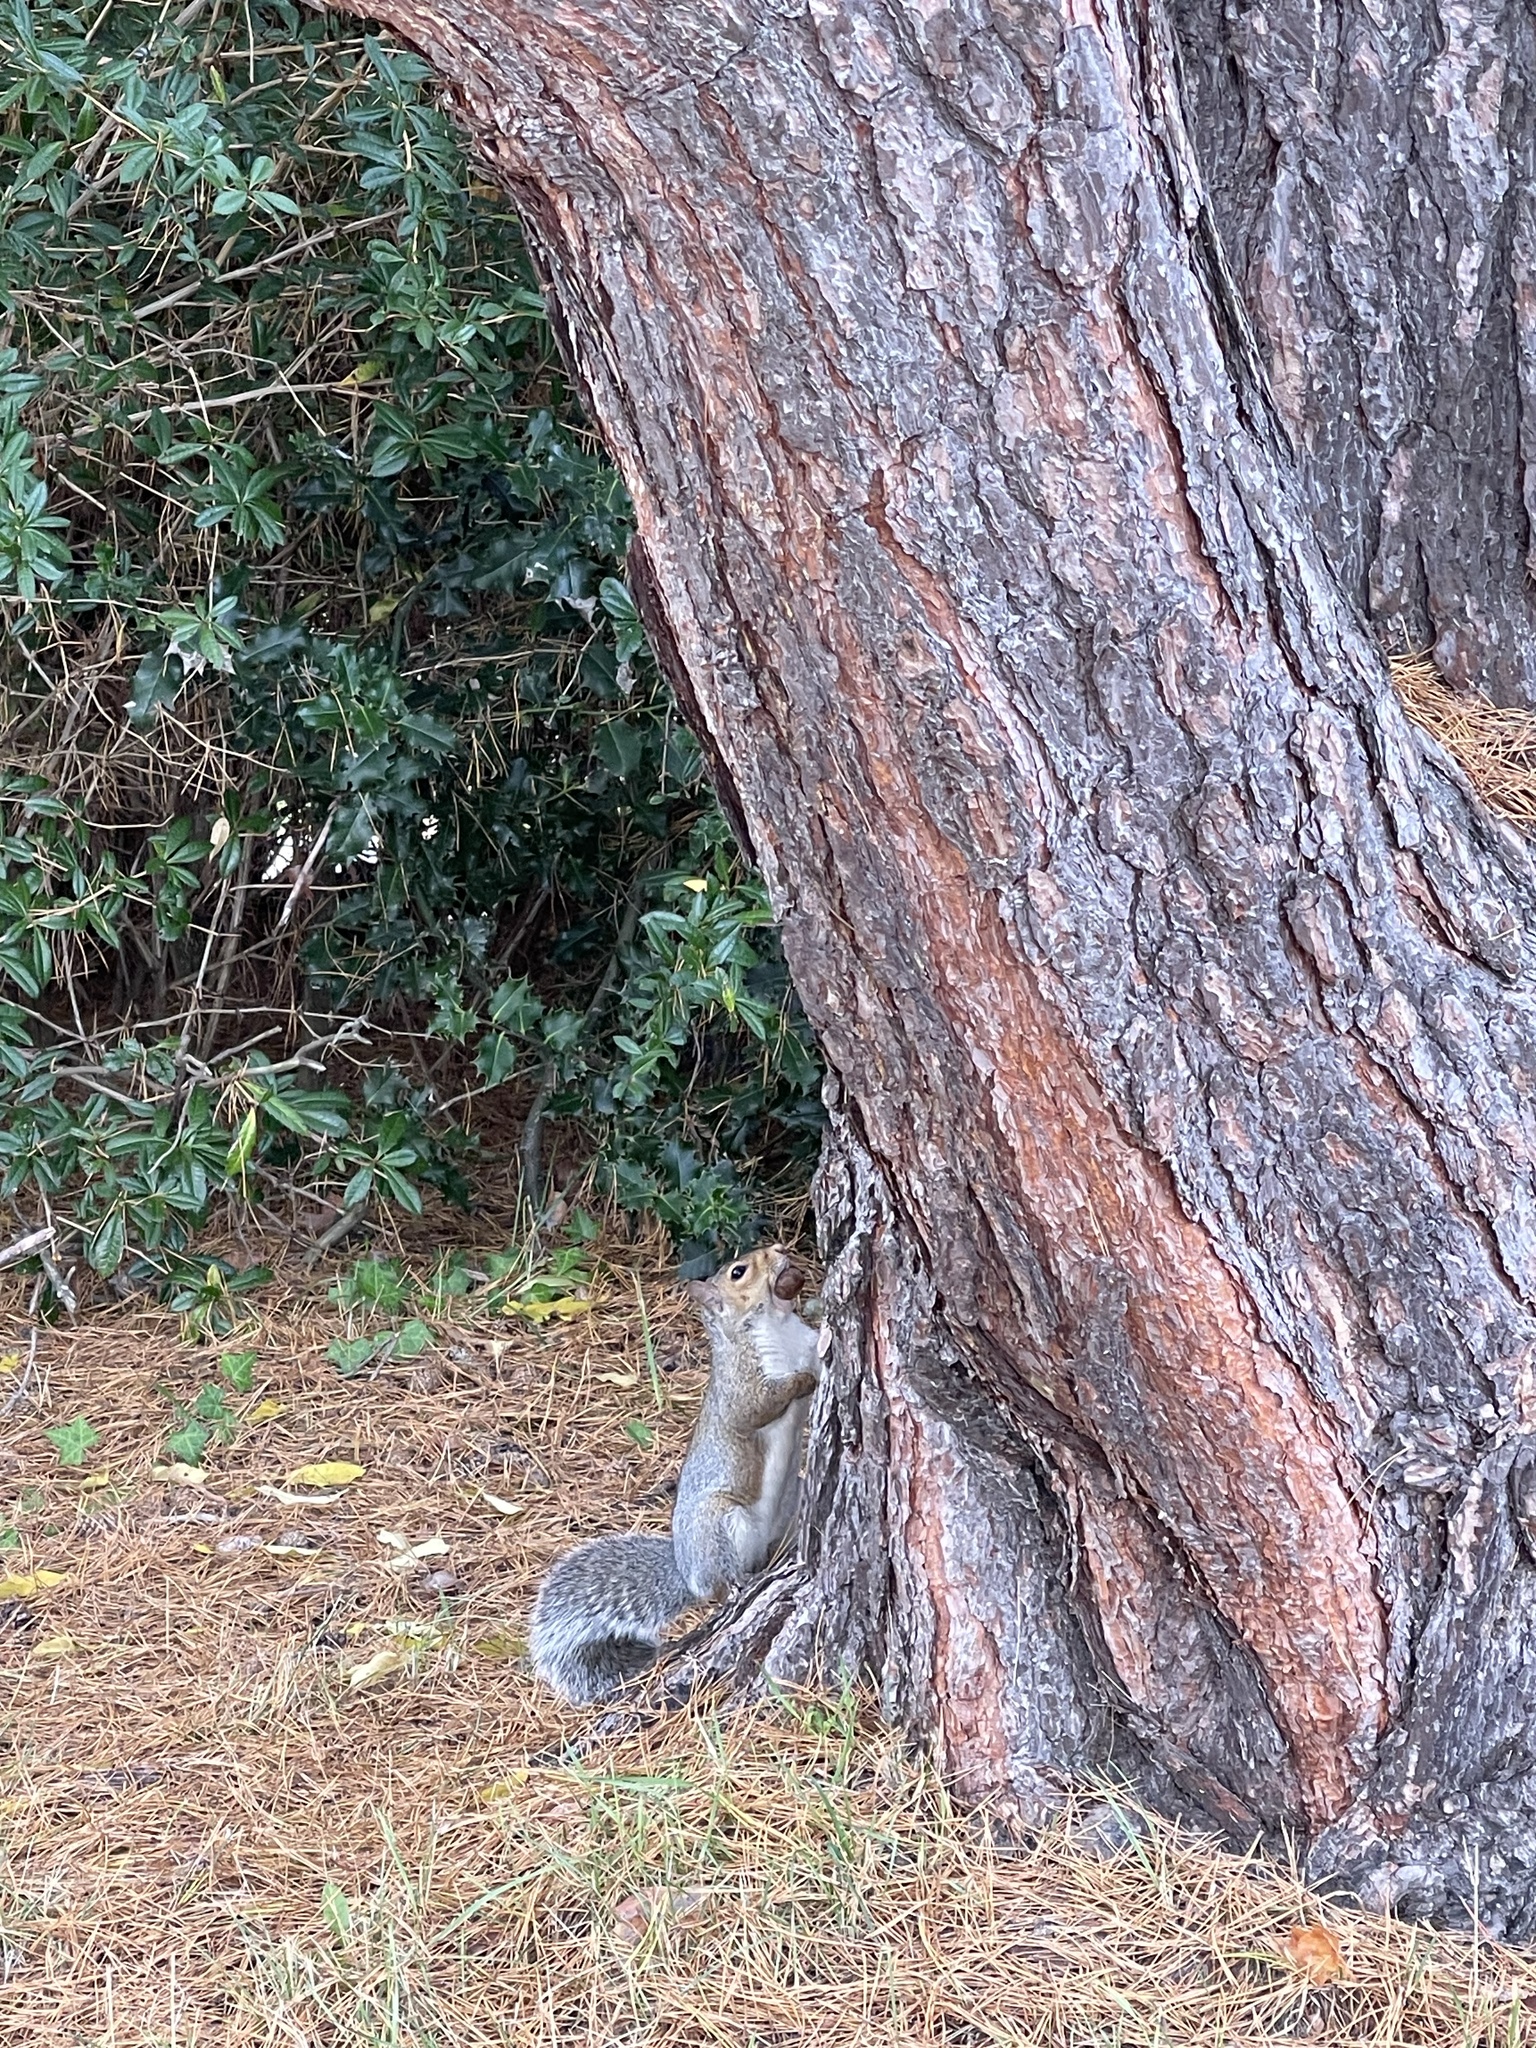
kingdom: Animalia
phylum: Chordata
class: Mammalia
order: Rodentia
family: Sciuridae
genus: Sciurus
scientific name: Sciurus carolinensis
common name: Eastern gray squirrel
